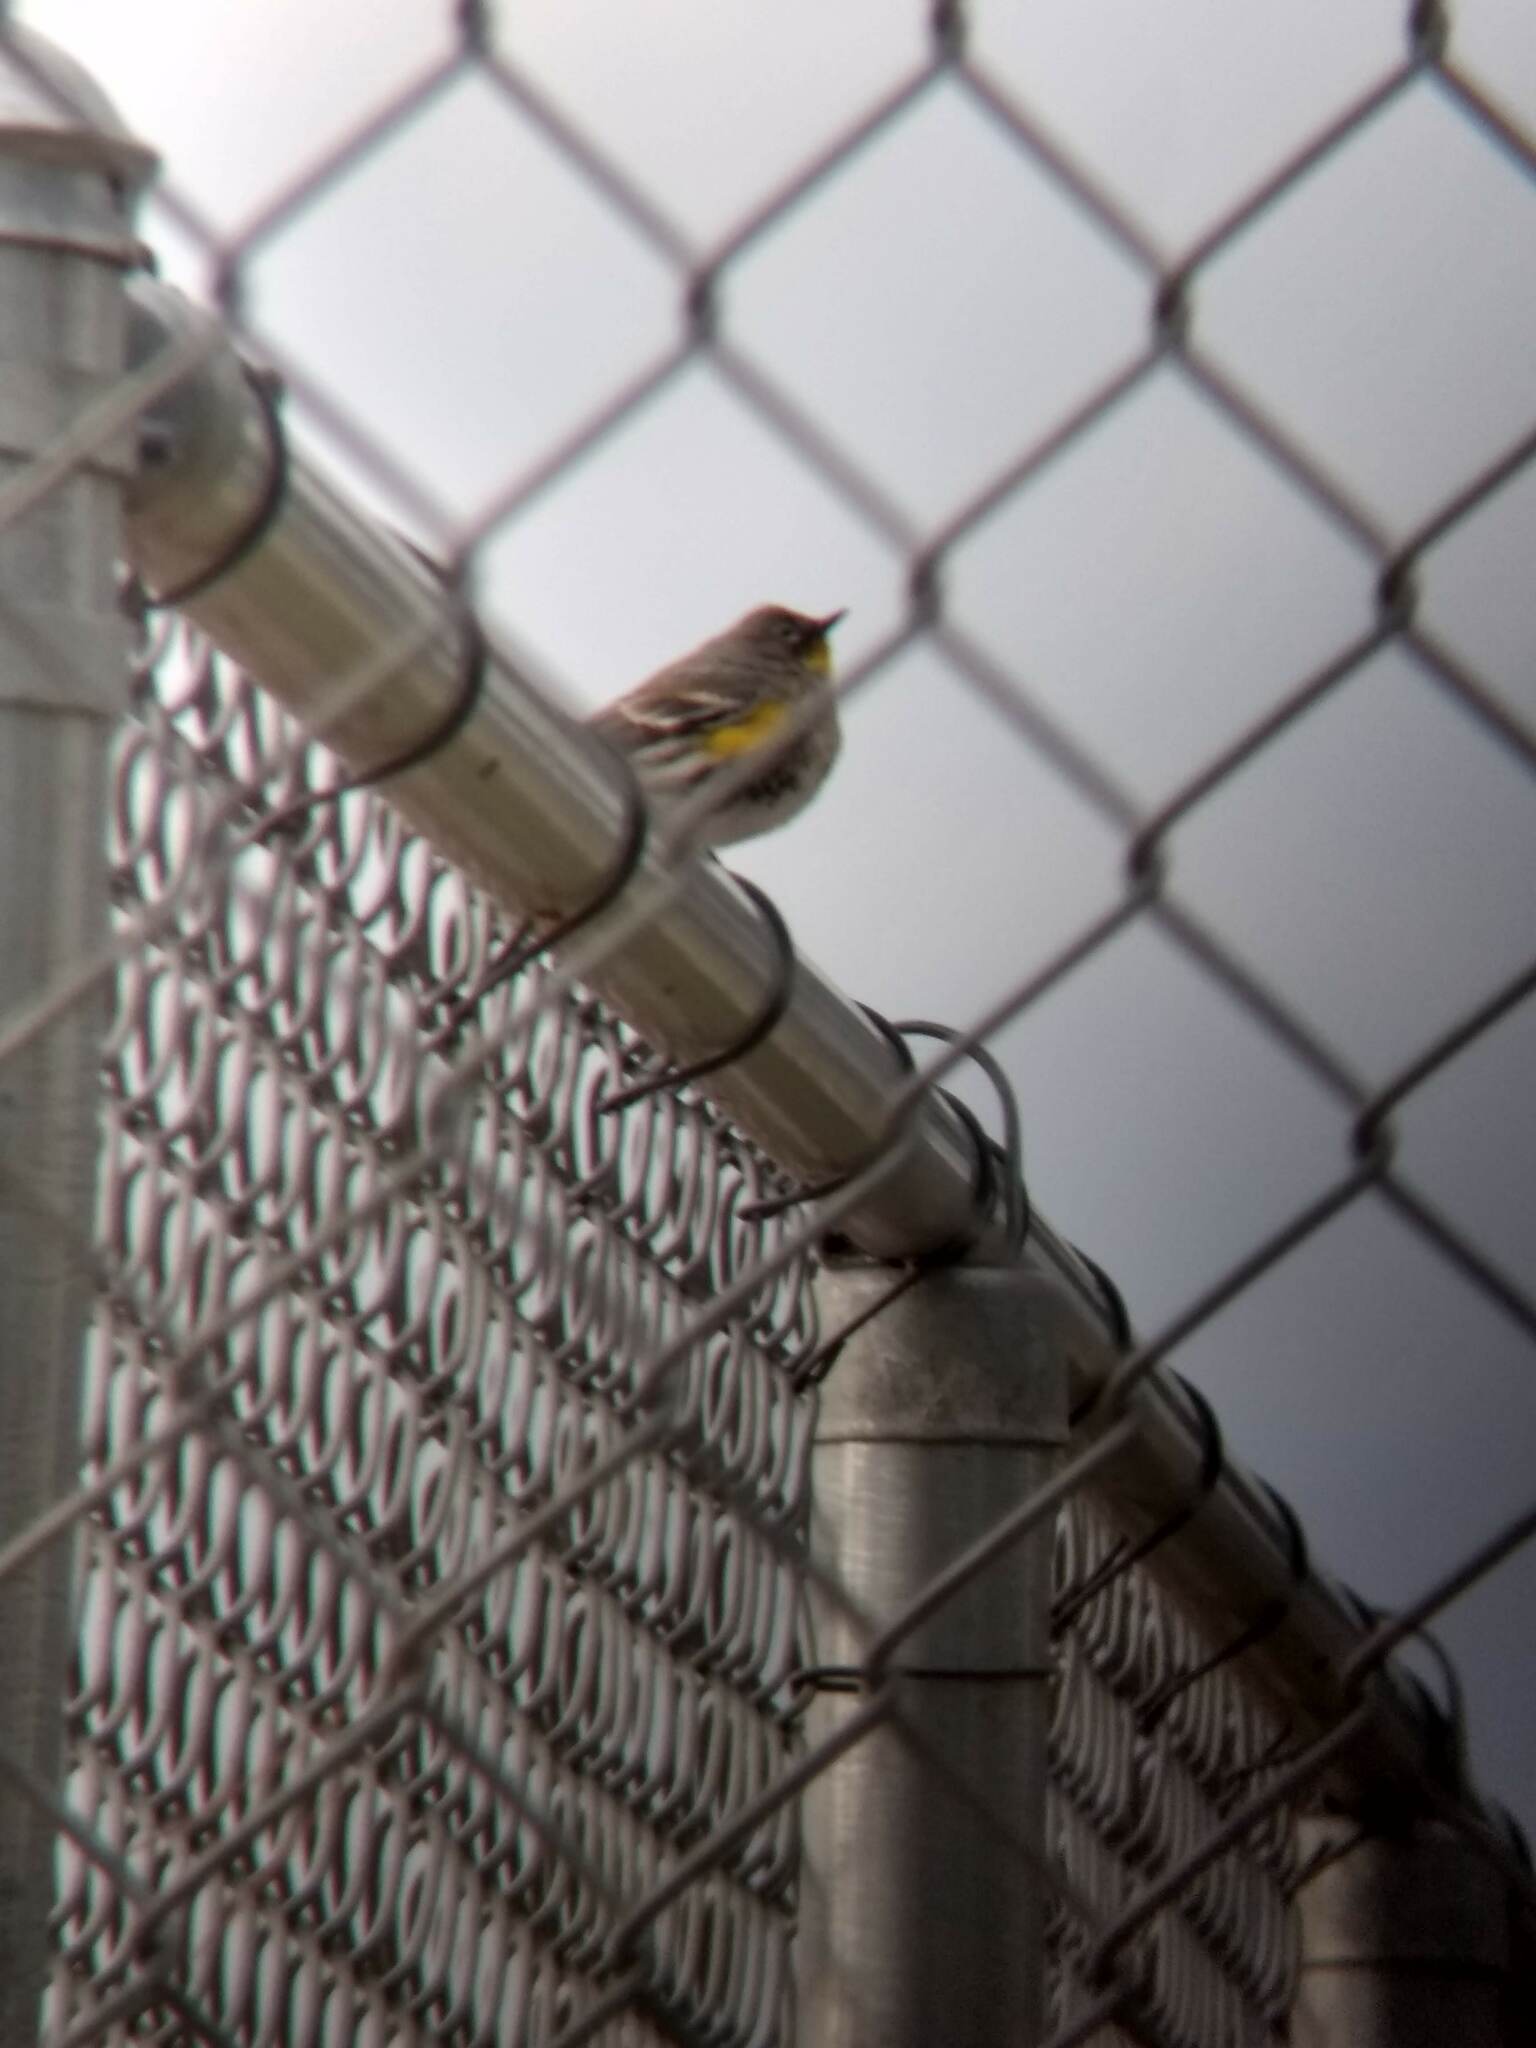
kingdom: Animalia
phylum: Chordata
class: Aves
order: Passeriformes
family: Parulidae
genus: Setophaga
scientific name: Setophaga coronata
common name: Myrtle warbler
